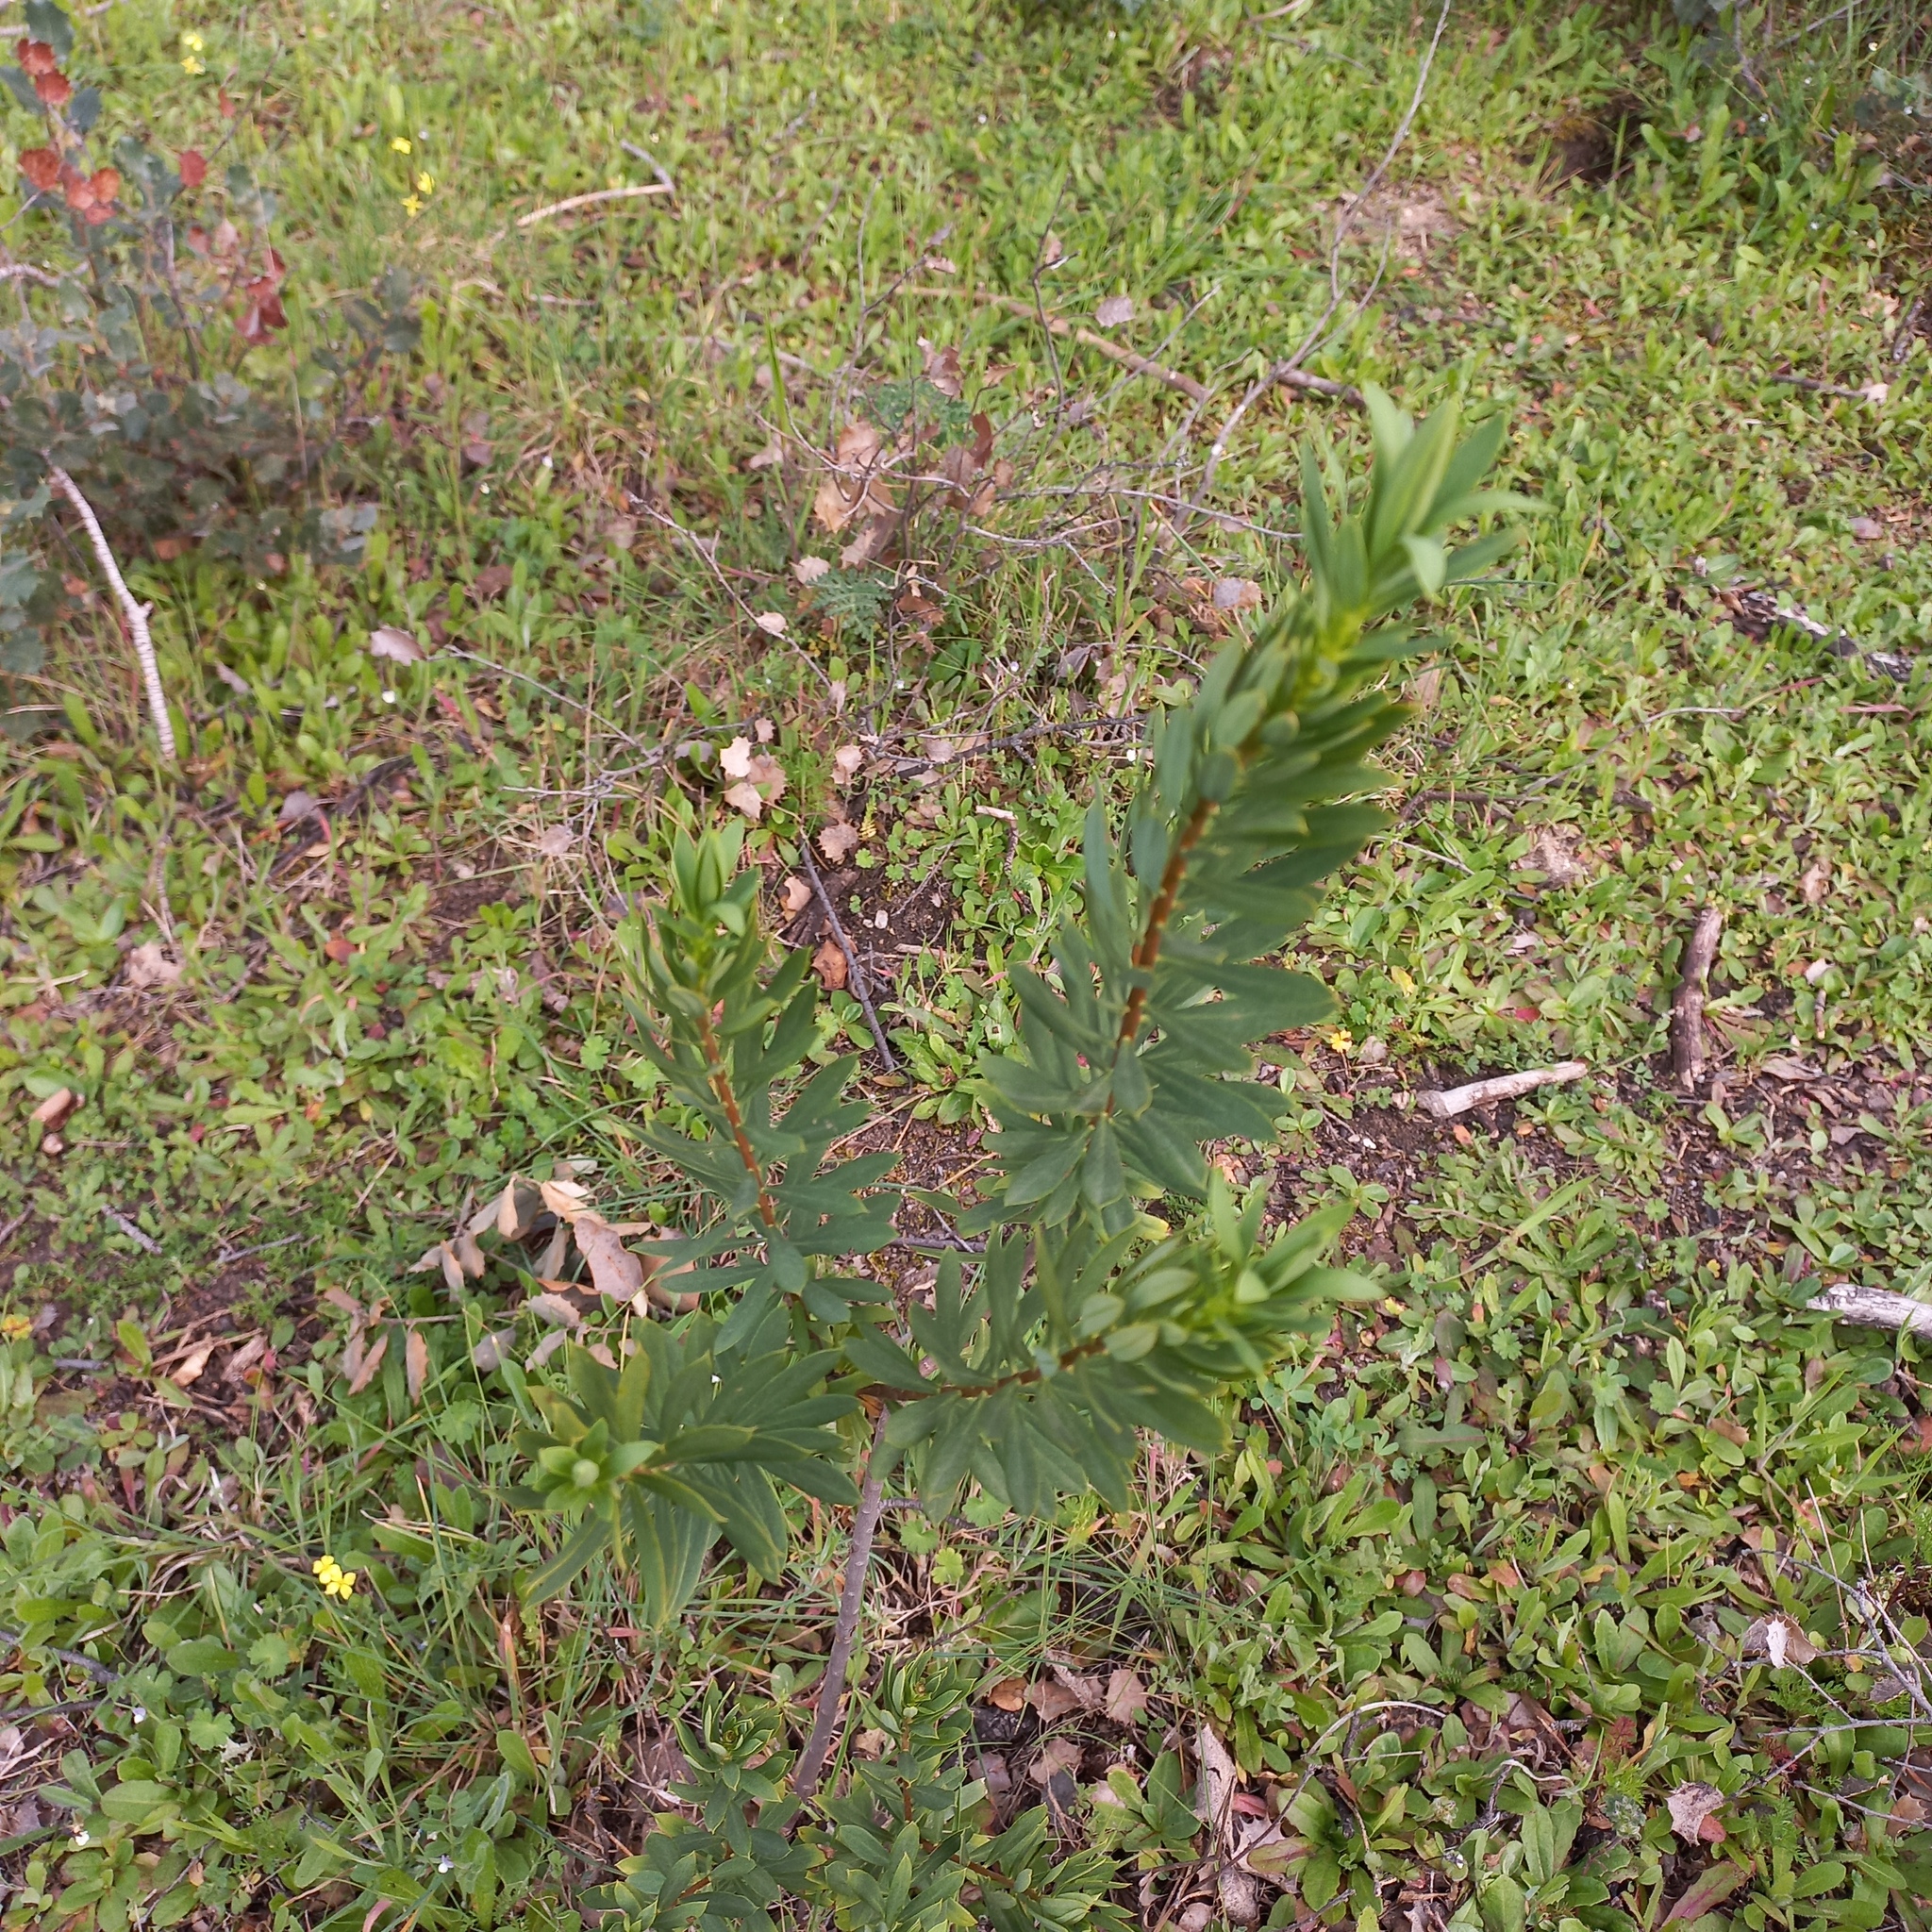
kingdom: Plantae
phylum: Tracheophyta
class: Magnoliopsida
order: Malvales
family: Thymelaeaceae
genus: Daphne
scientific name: Daphne gnidium
